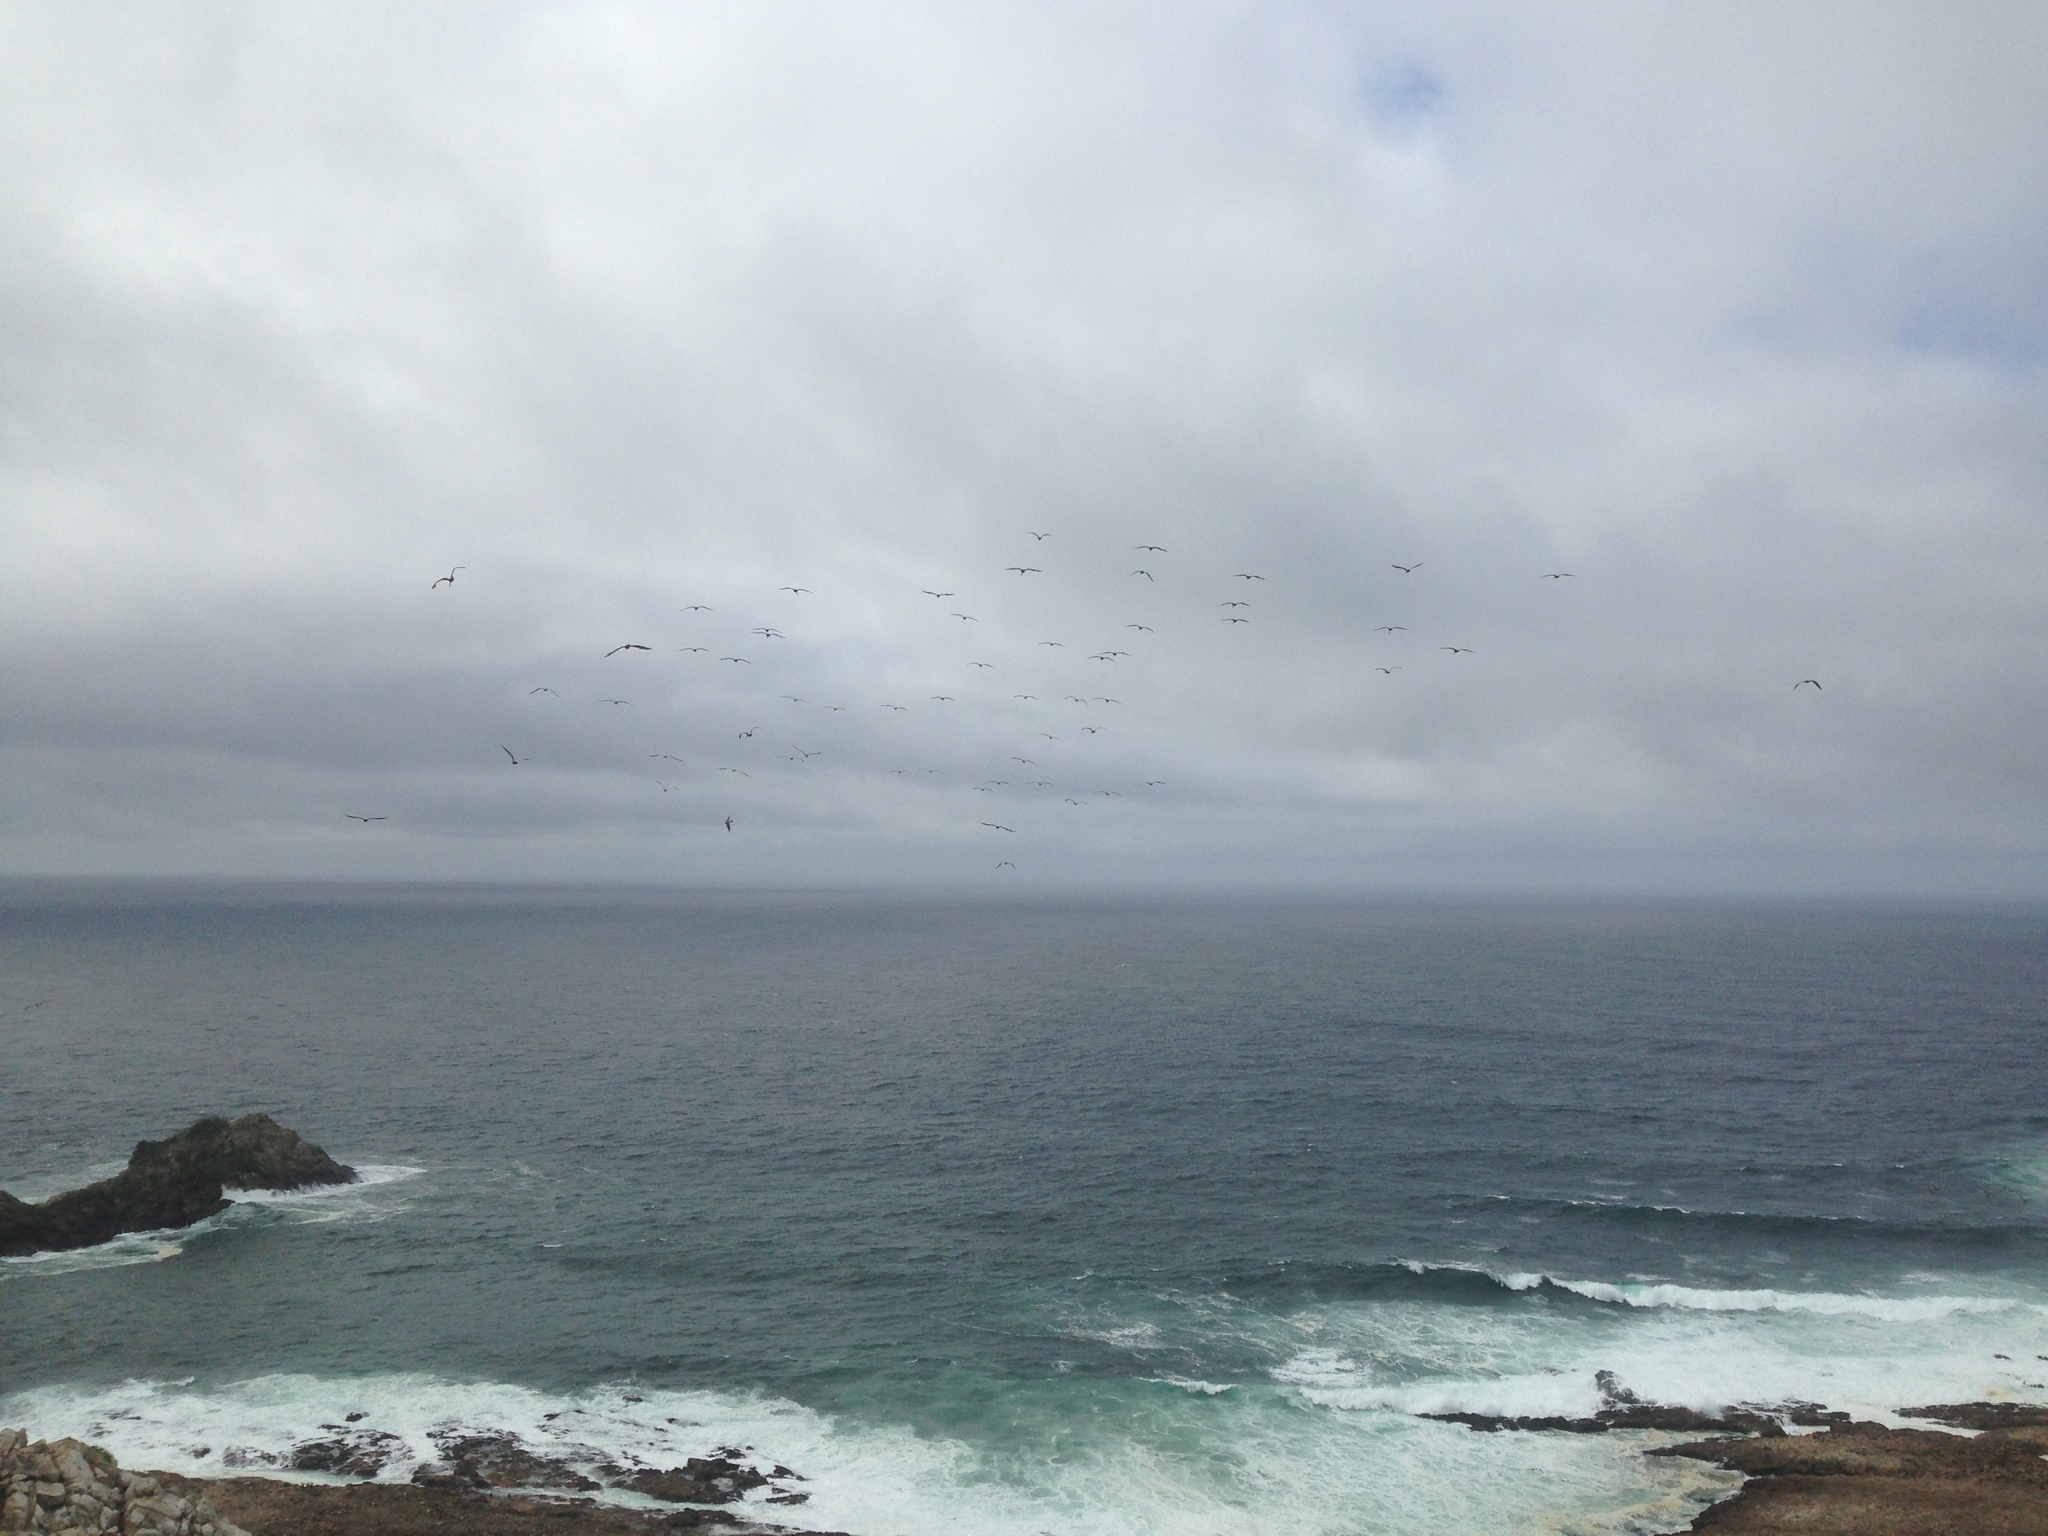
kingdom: Animalia
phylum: Chordata
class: Aves
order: Pelecaniformes
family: Pelecanidae
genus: Pelecanus
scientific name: Pelecanus occidentalis
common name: Brown pelican
